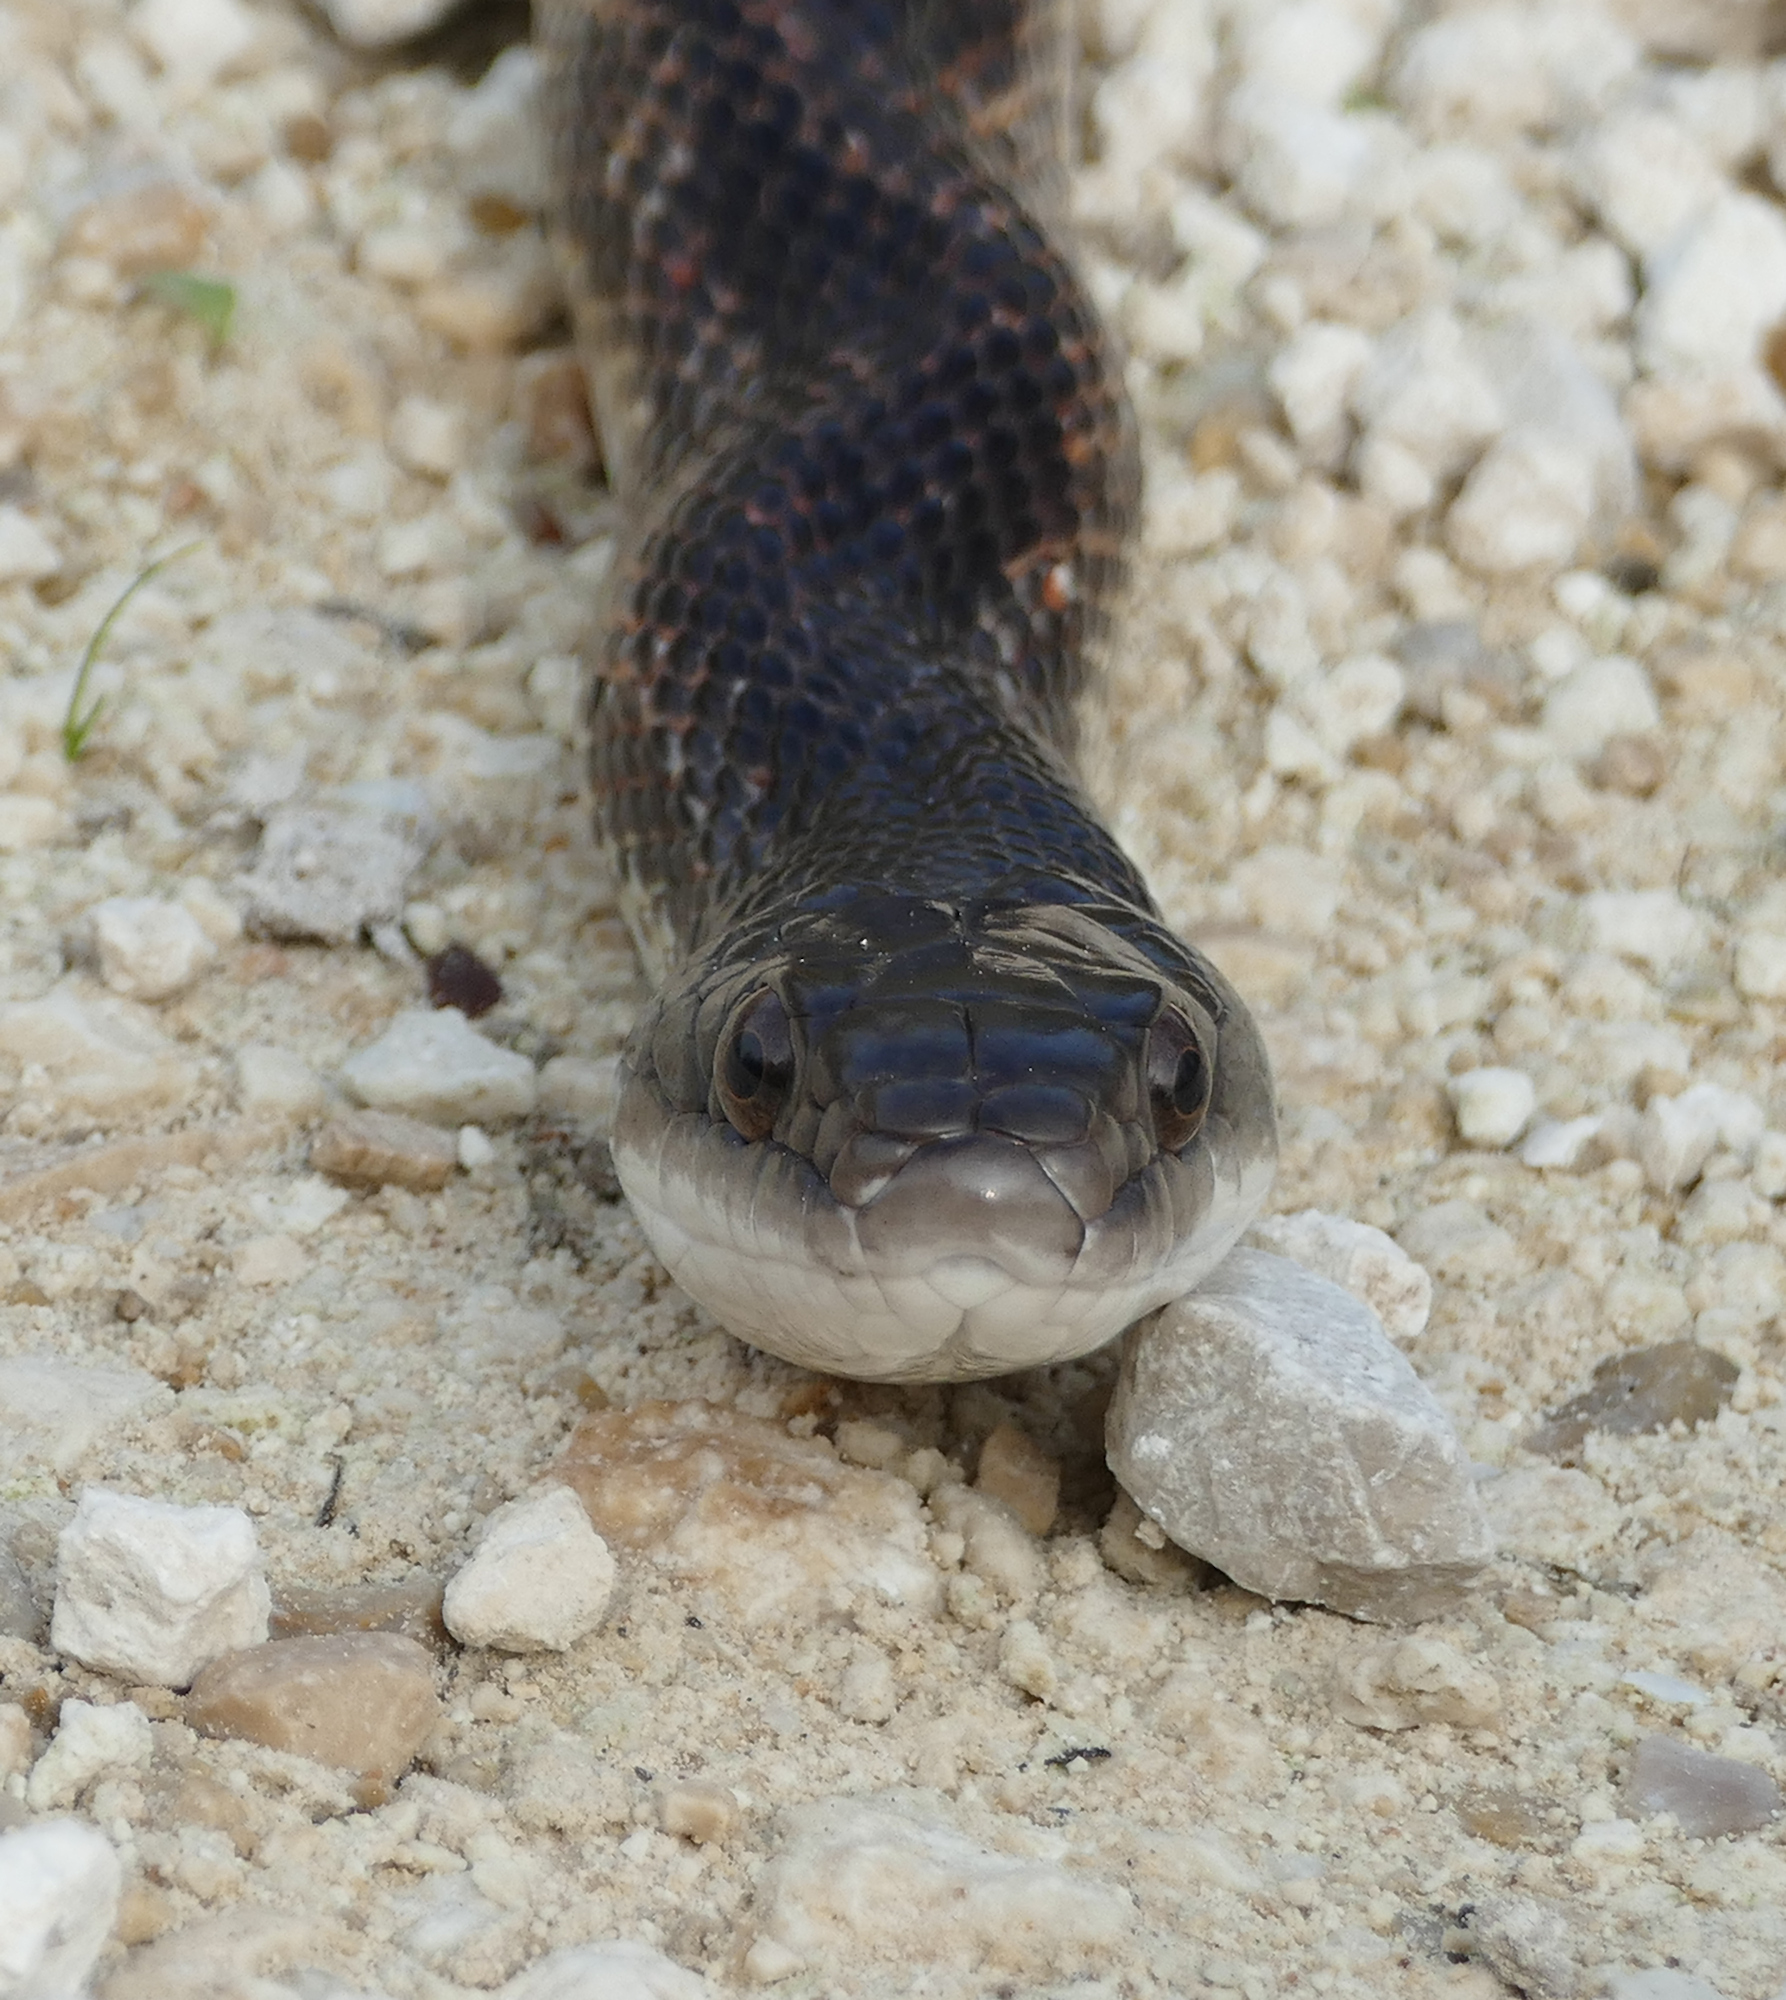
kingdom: Animalia
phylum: Chordata
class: Squamata
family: Colubridae
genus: Pantherophis
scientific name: Pantherophis obsoletus
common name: Black rat snake
